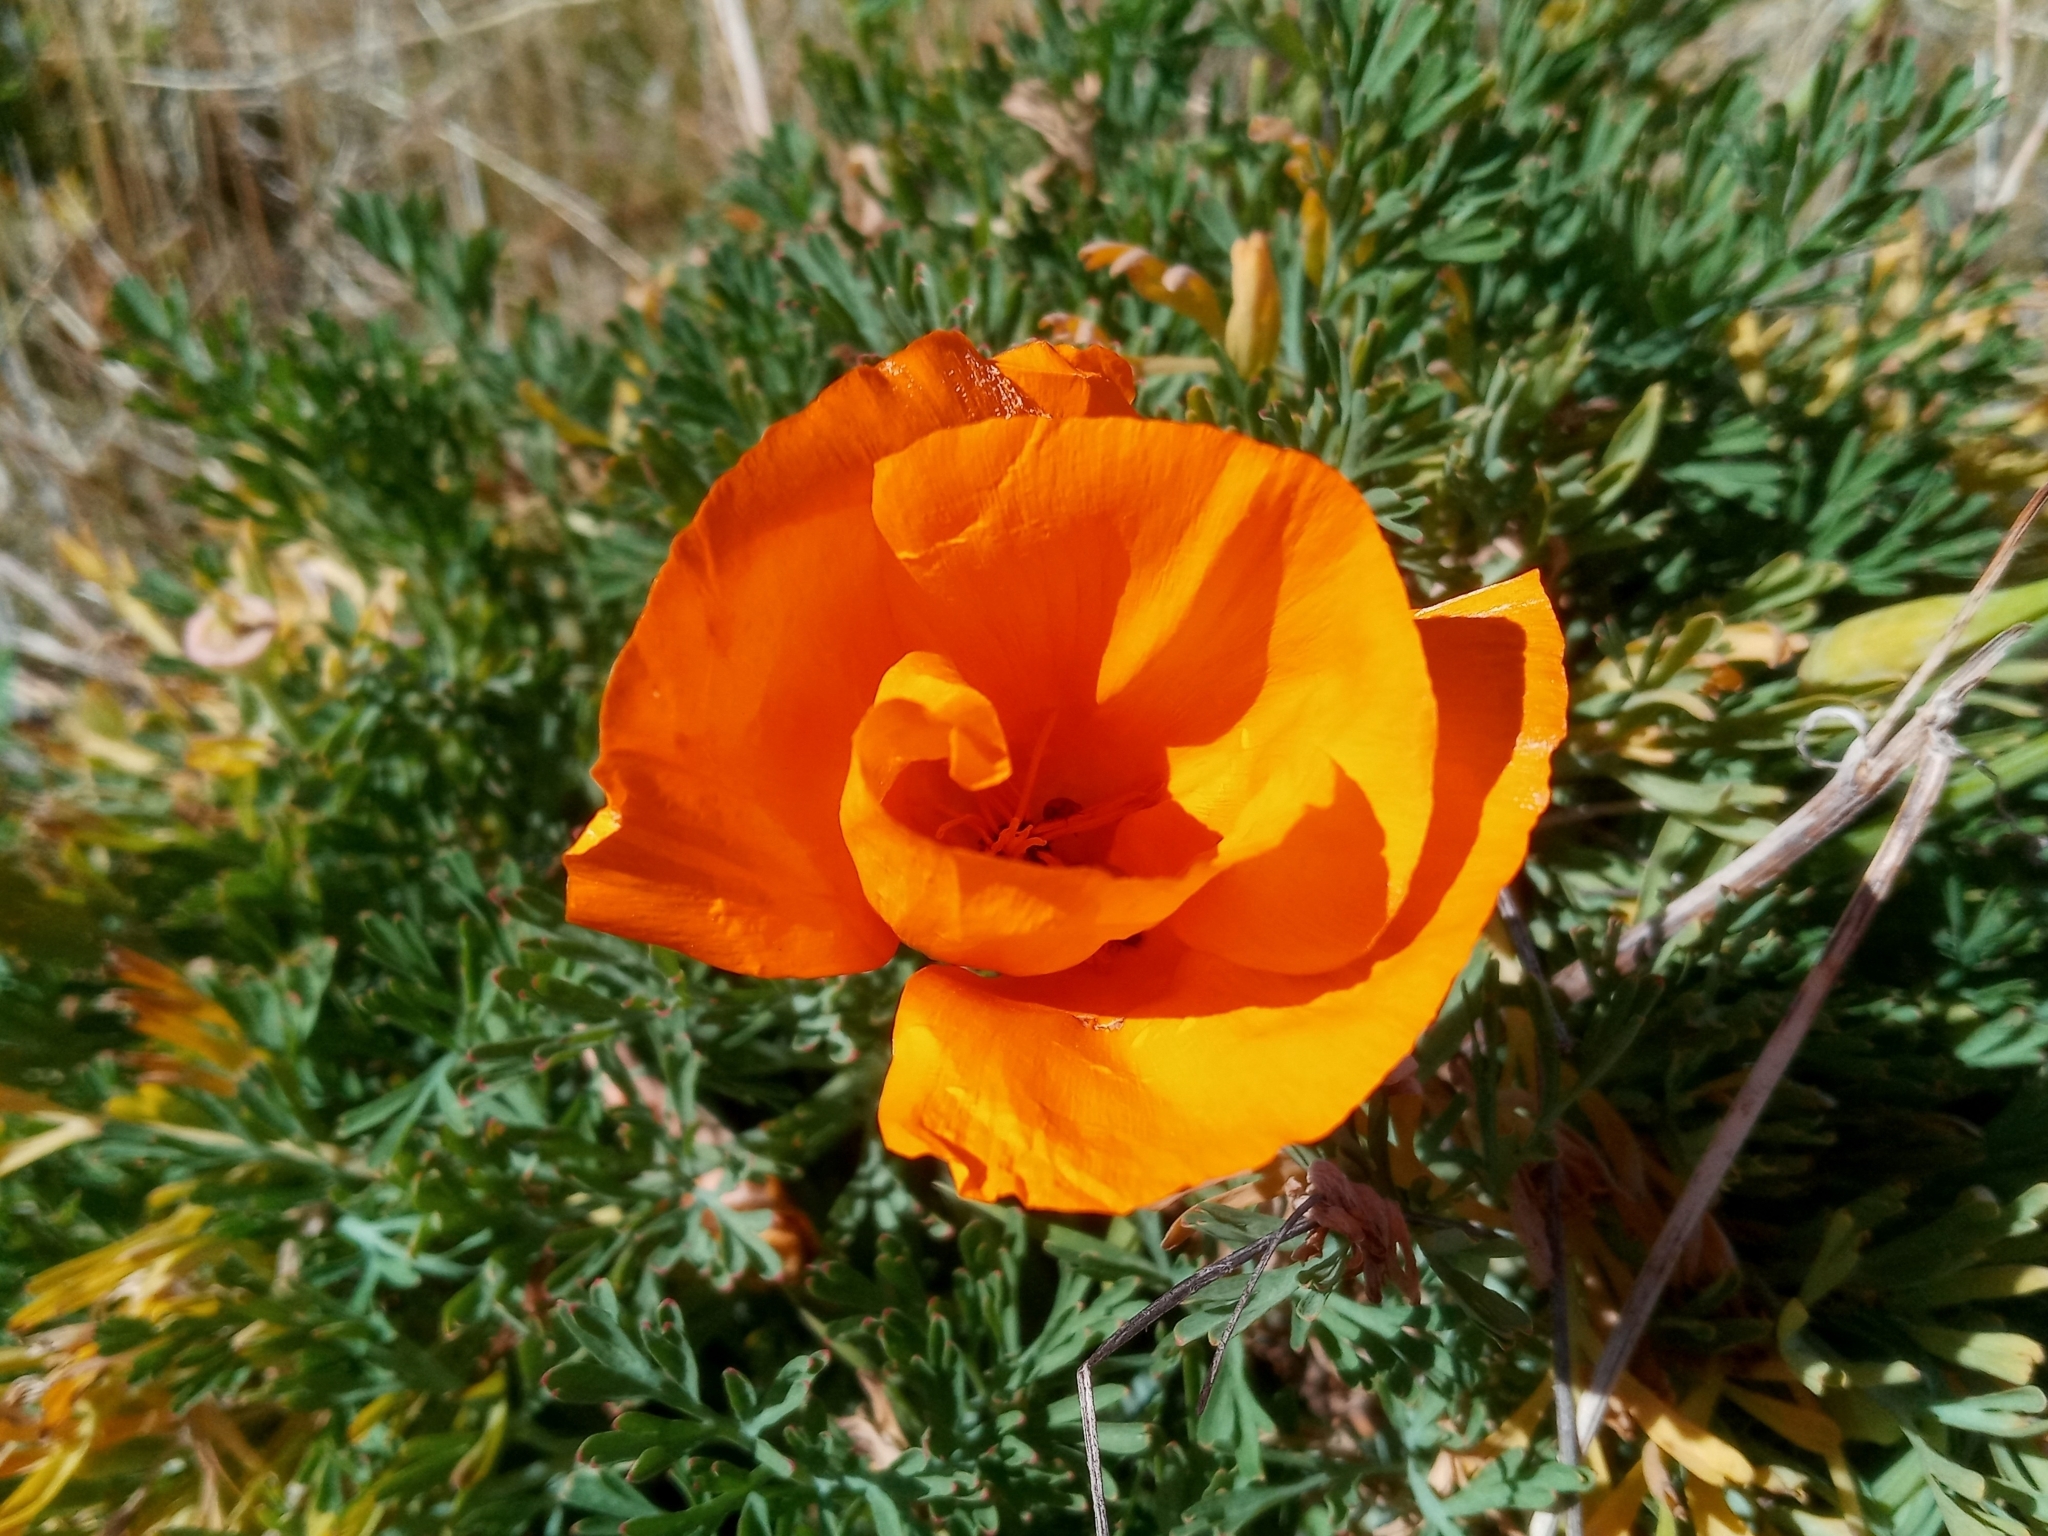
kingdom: Plantae
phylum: Tracheophyta
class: Magnoliopsida
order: Ranunculales
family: Papaveraceae
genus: Eschscholzia
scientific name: Eschscholzia californica
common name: California poppy
